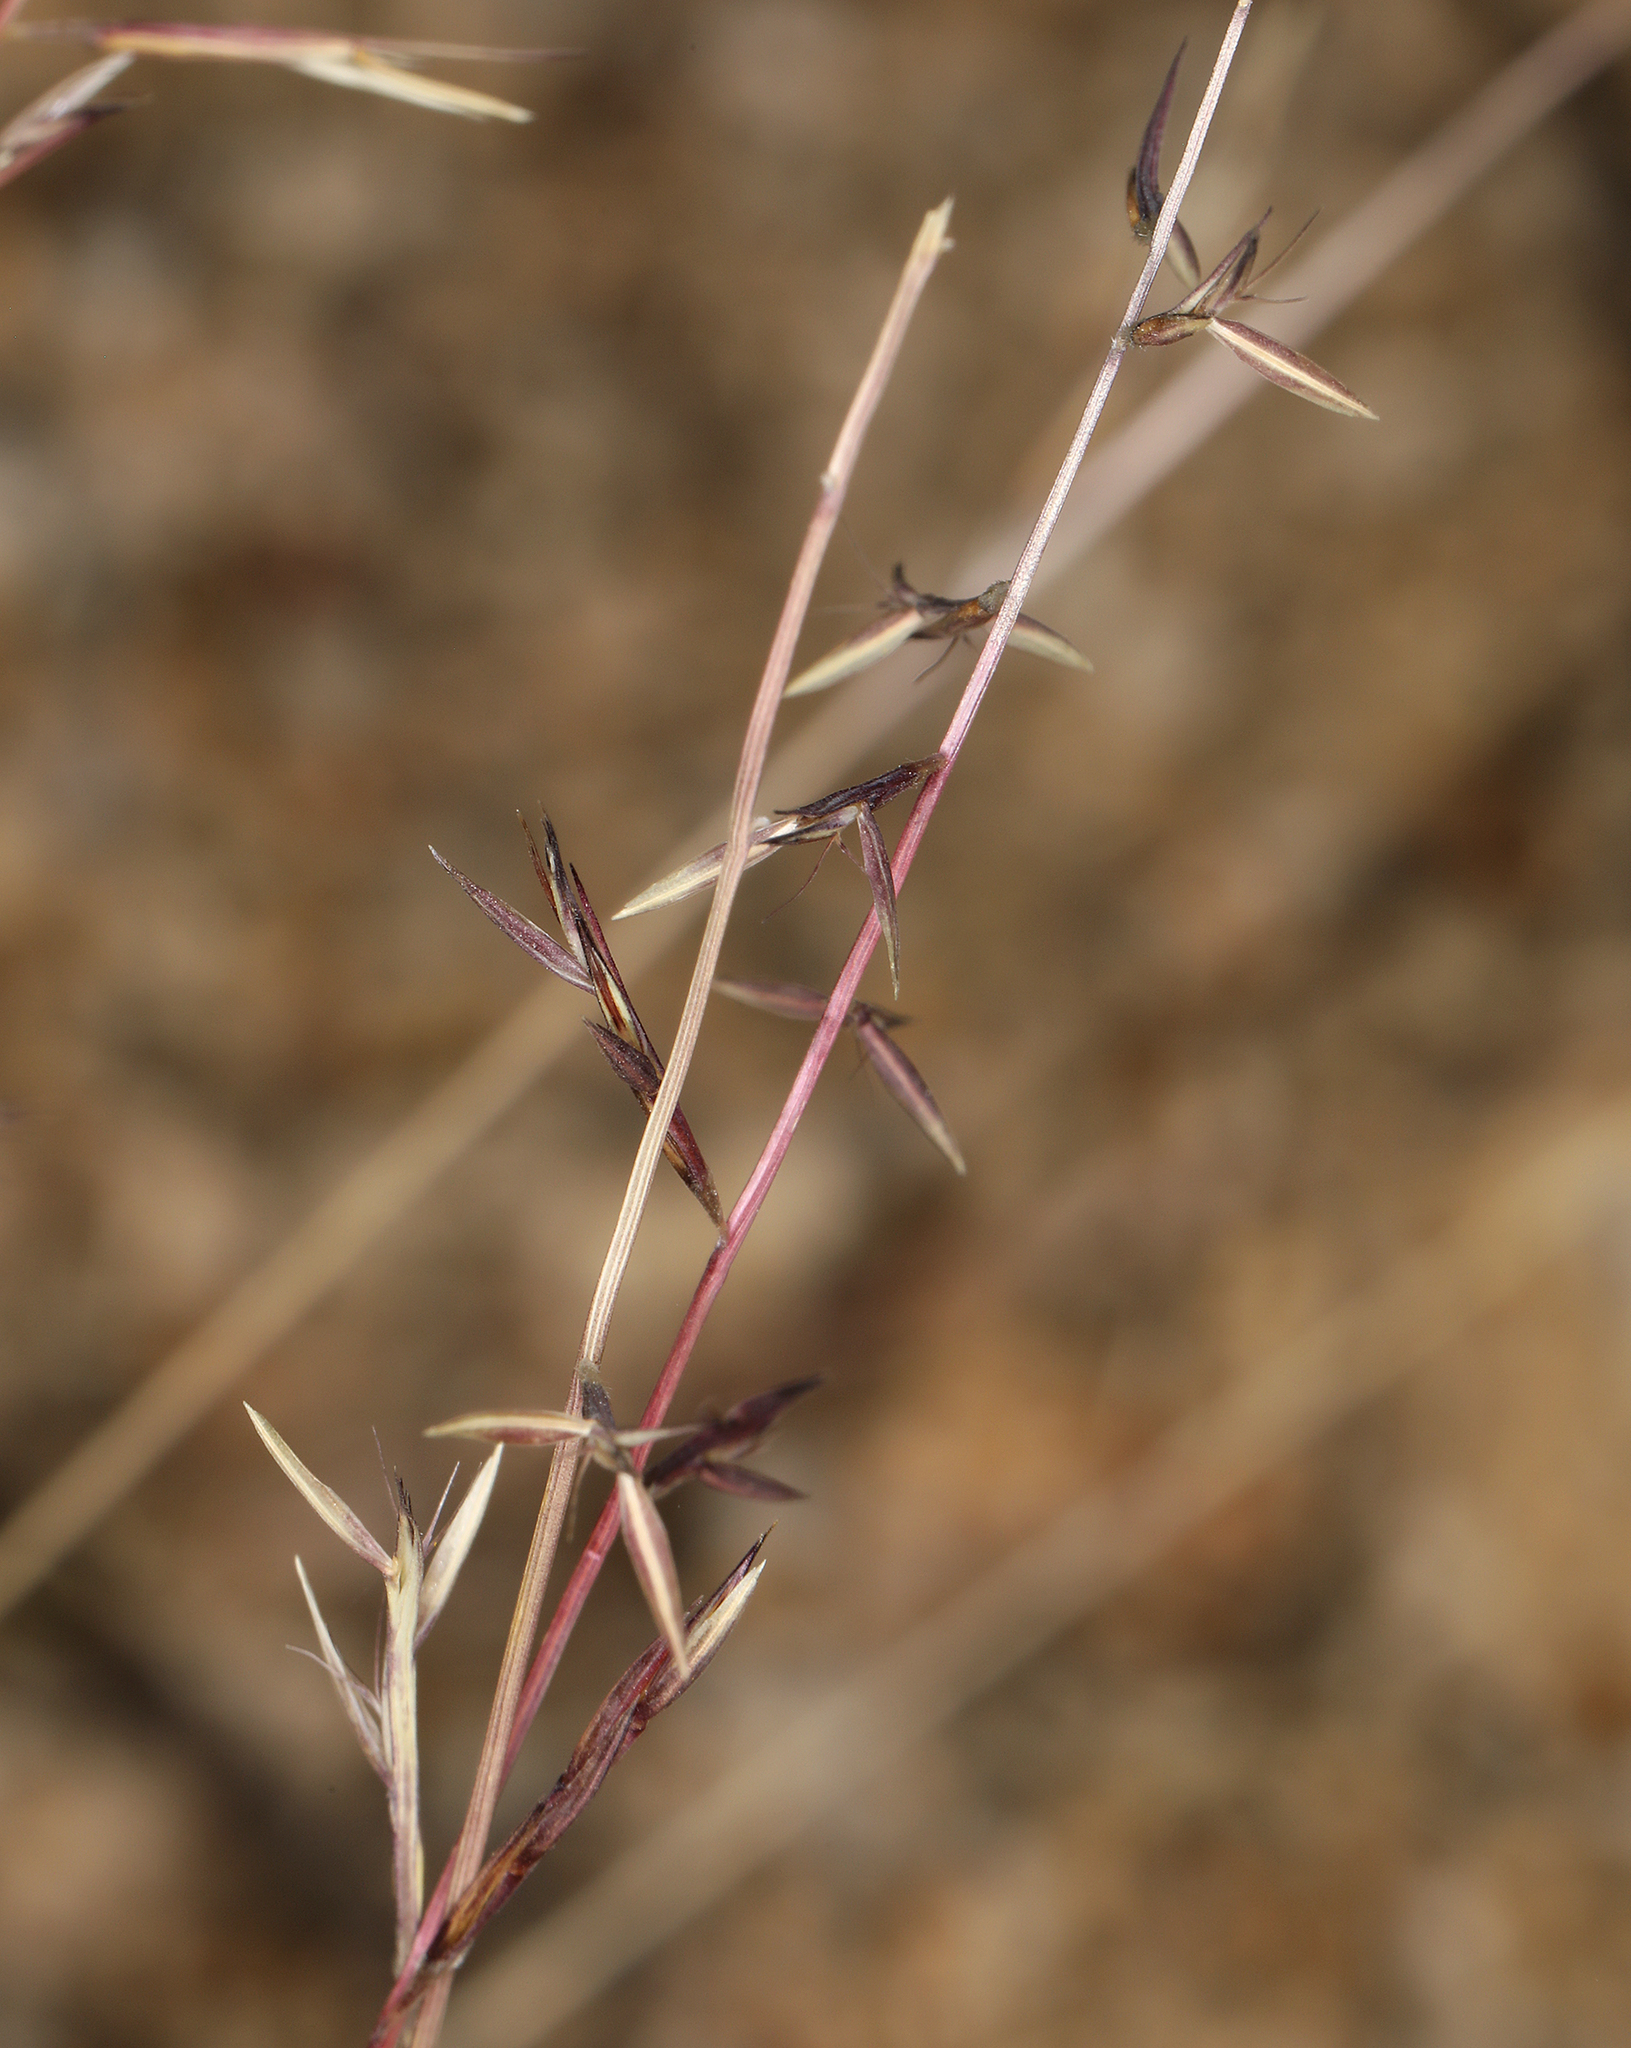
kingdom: Plantae
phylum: Tracheophyta
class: Liliopsida
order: Poales
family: Poaceae
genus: Bouteloua
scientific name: Bouteloua aristidoides
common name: Needle grama
